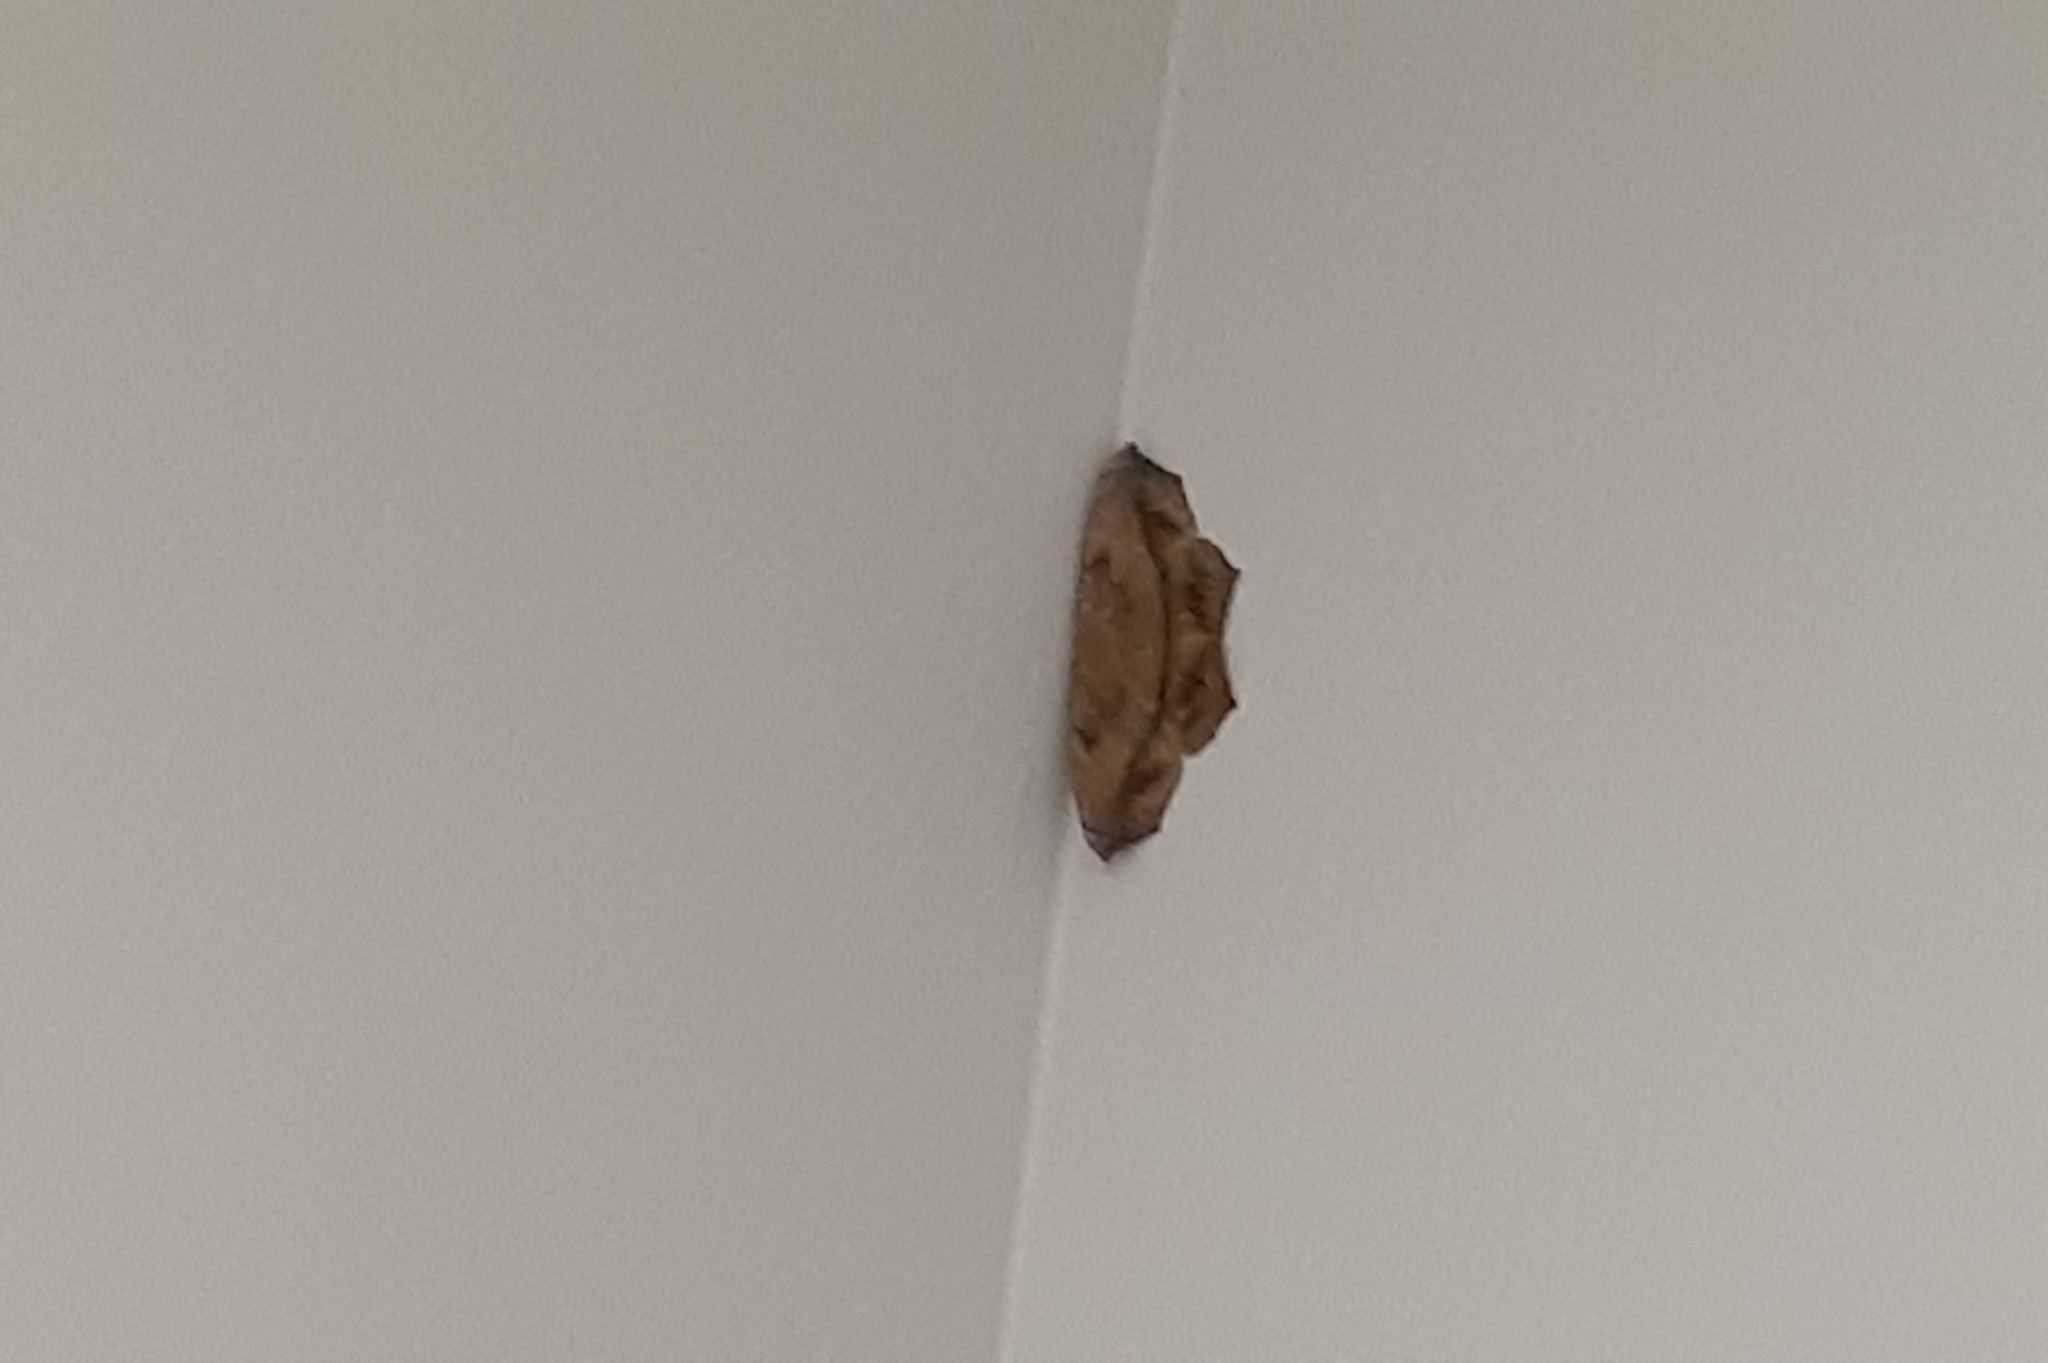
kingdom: Animalia
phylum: Arthropoda
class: Insecta
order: Lepidoptera
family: Geometridae
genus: Prochoerodes
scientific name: Prochoerodes lineola
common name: Large maple spanworm
